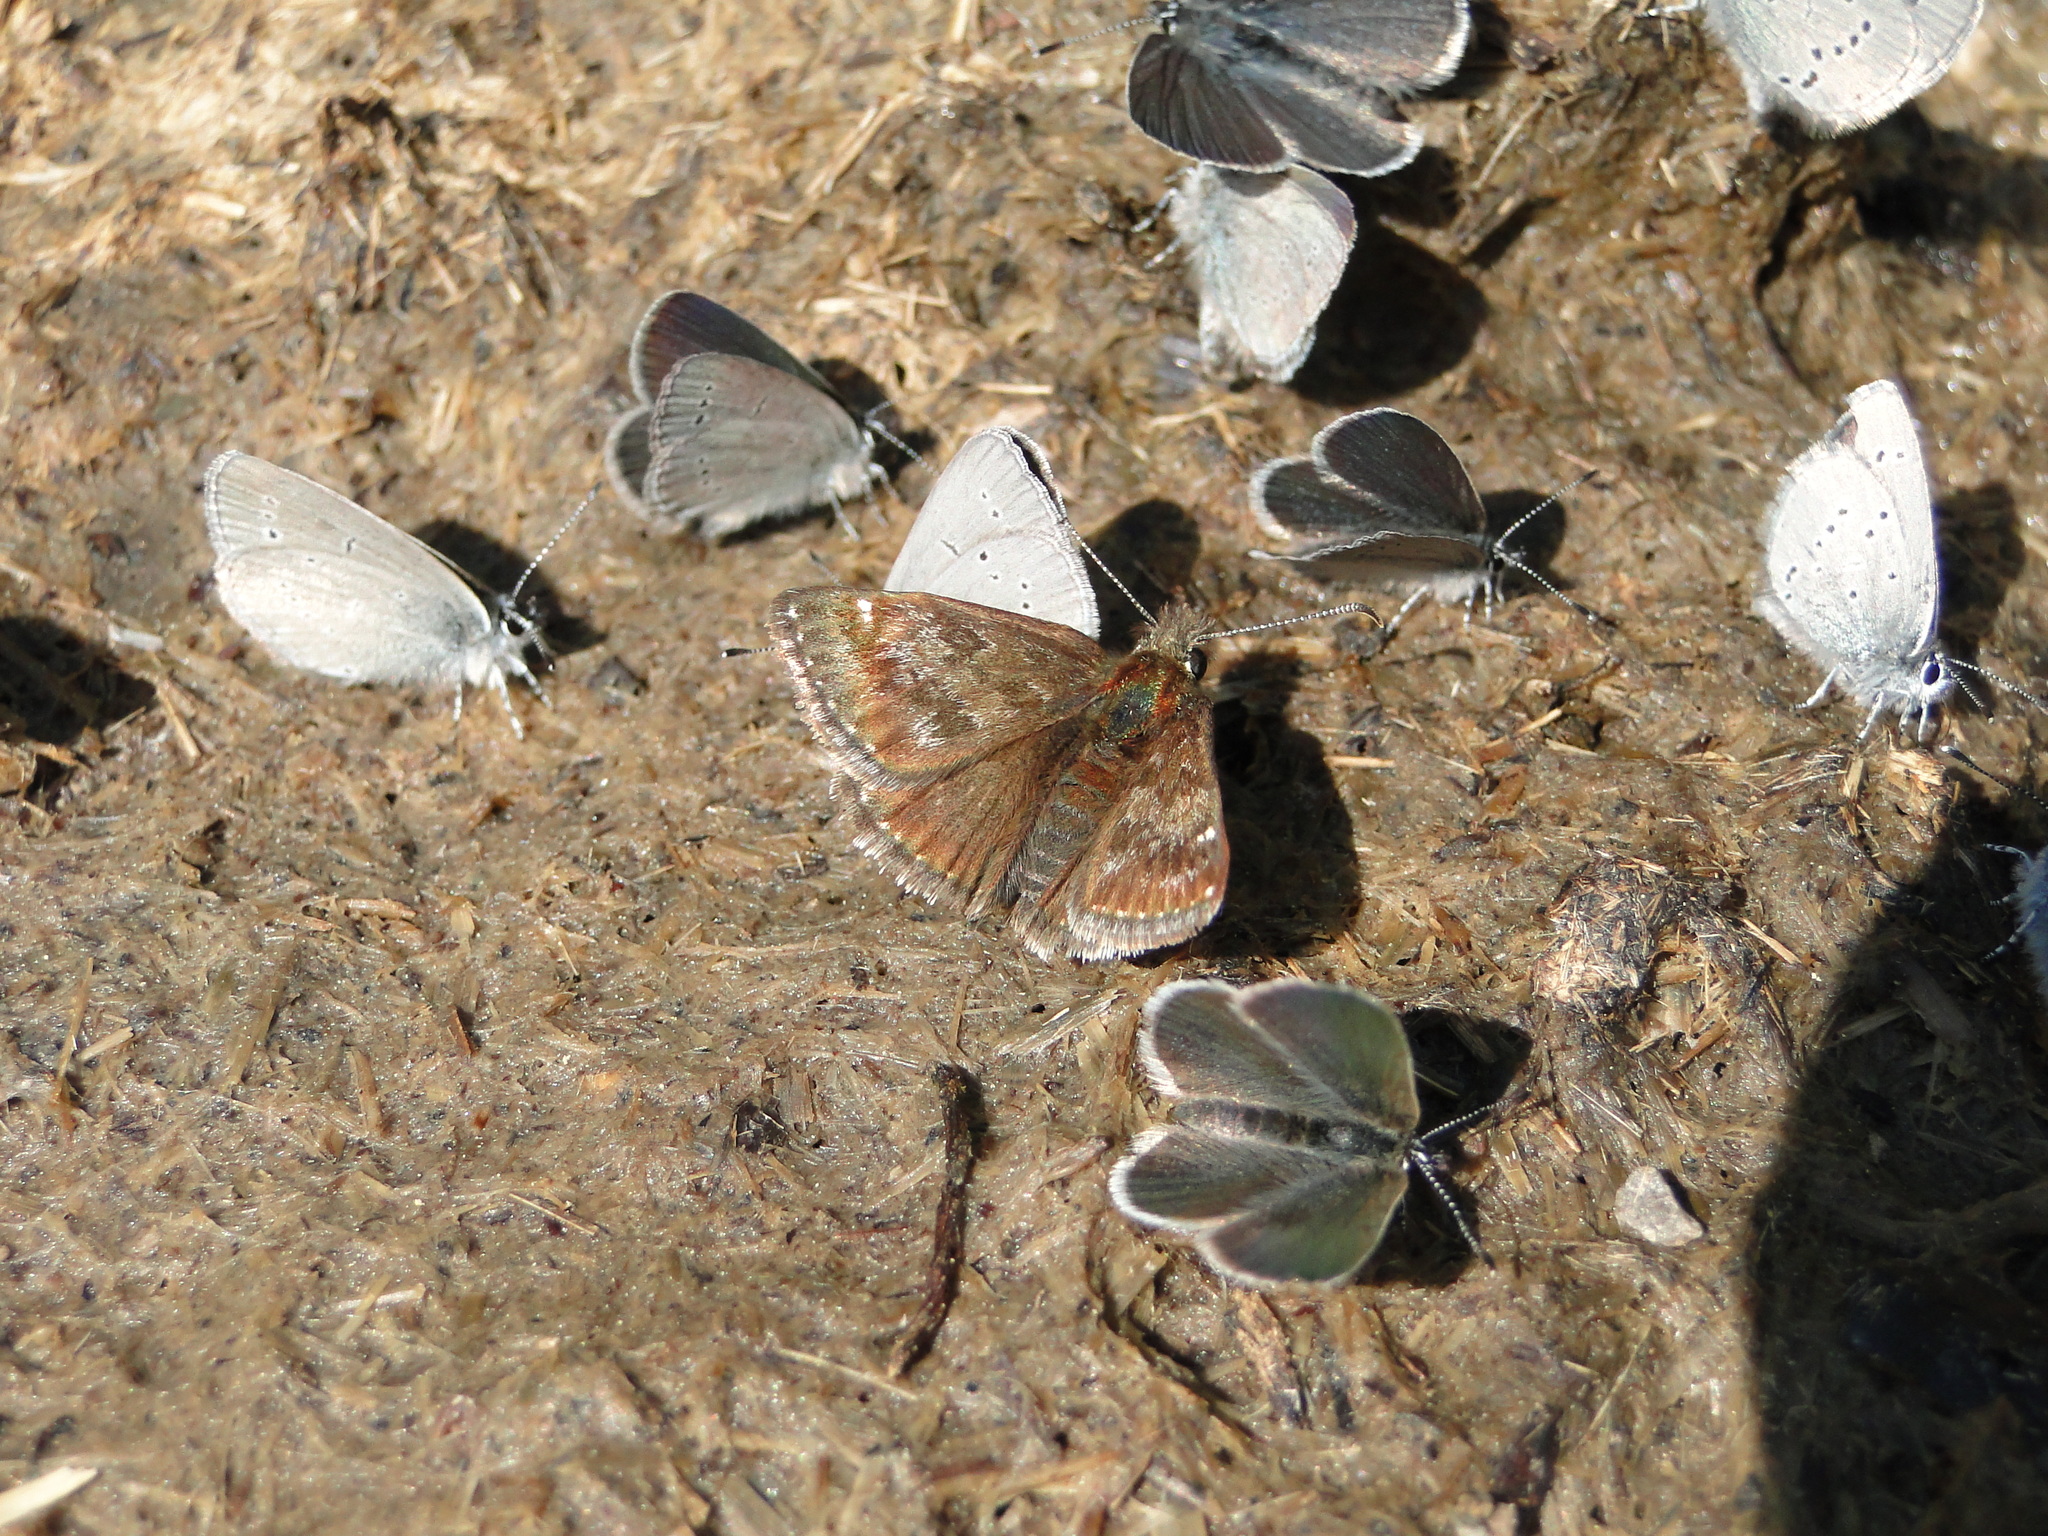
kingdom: Animalia
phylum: Arthropoda
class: Insecta
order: Lepidoptera
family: Hesperiidae
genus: Erynnis
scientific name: Erynnis tages
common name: Dingy skipper
